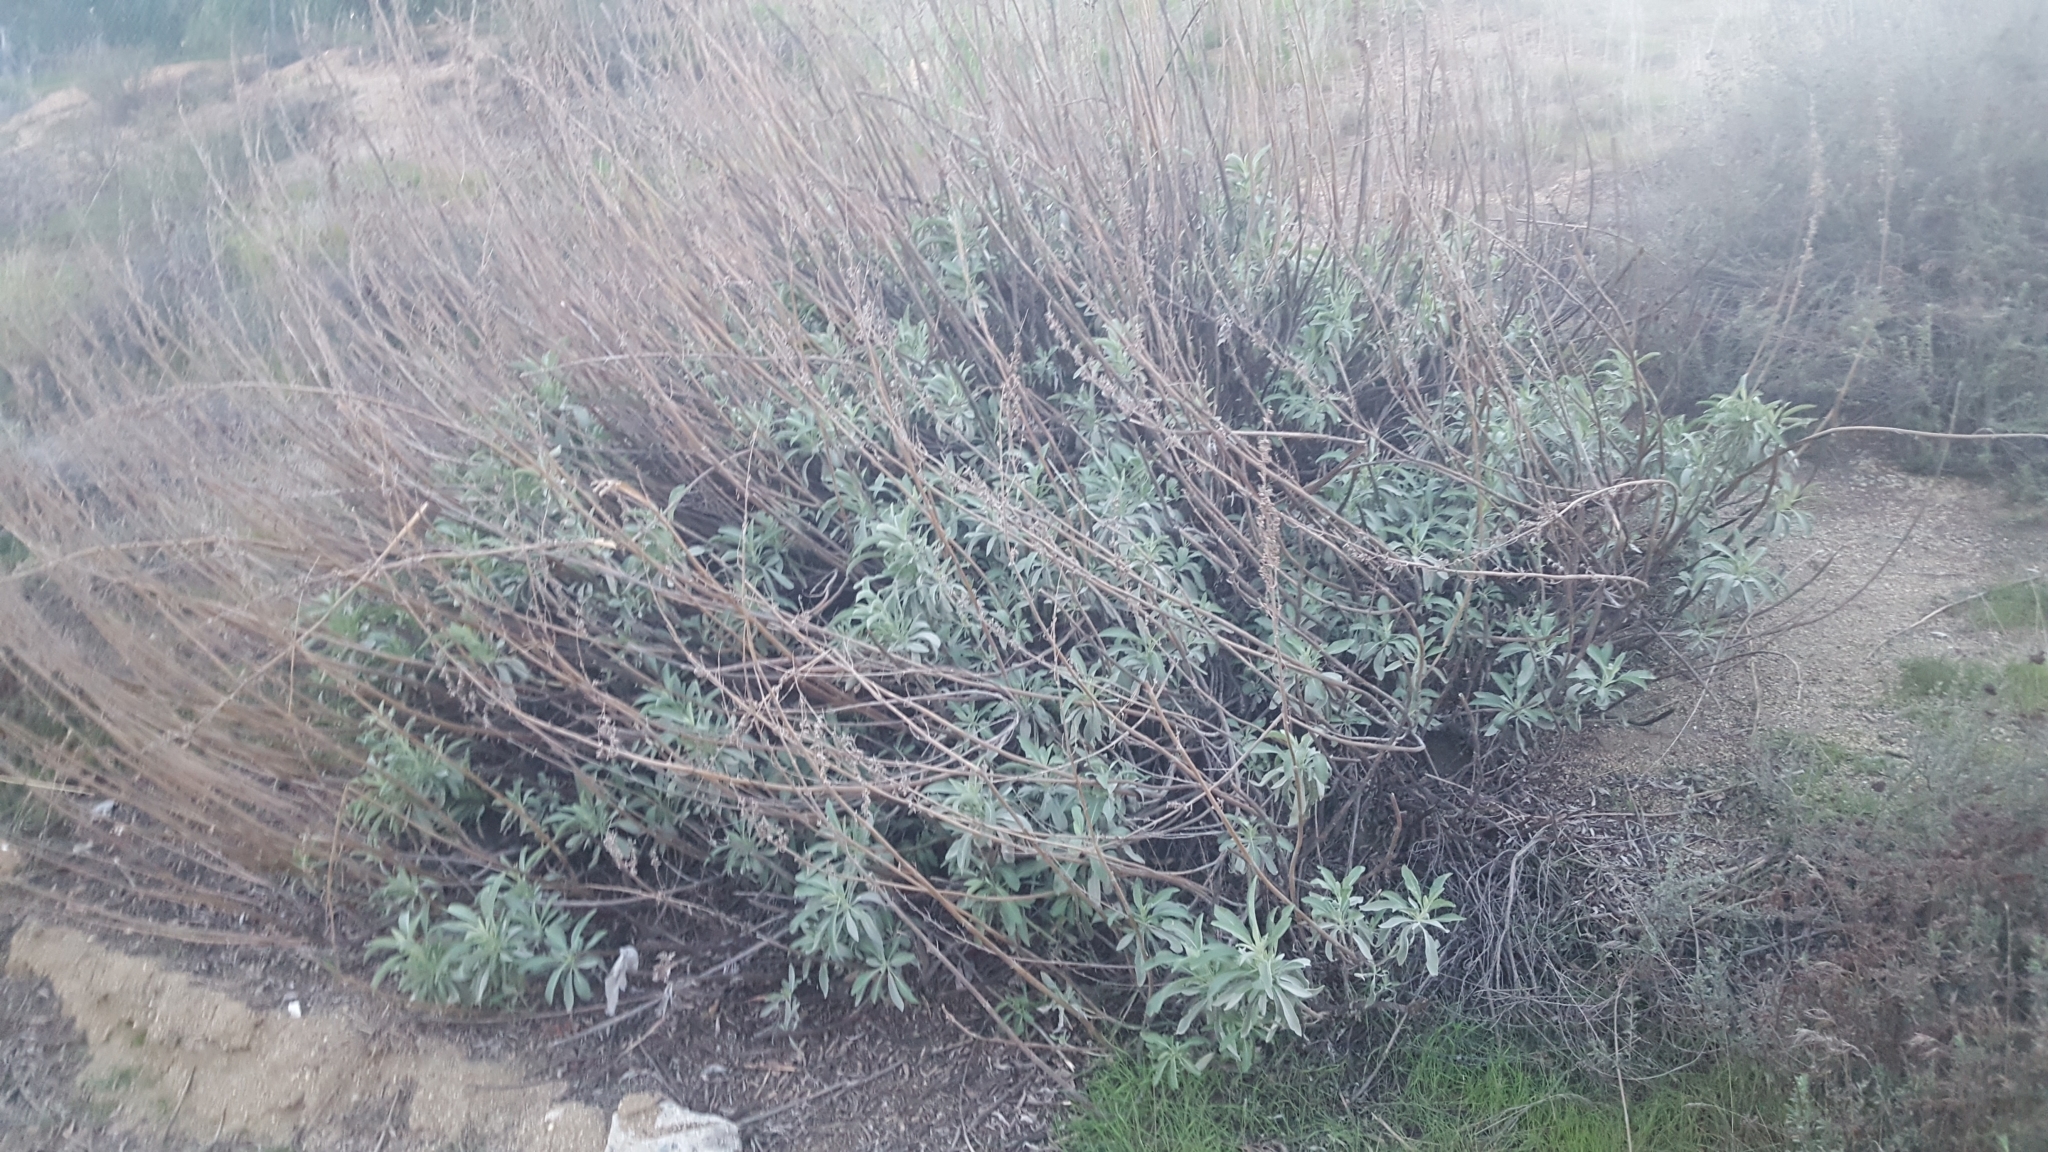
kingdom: Plantae
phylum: Tracheophyta
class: Magnoliopsida
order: Lamiales
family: Lamiaceae
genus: Salvia
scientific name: Salvia apiana
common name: White sage
